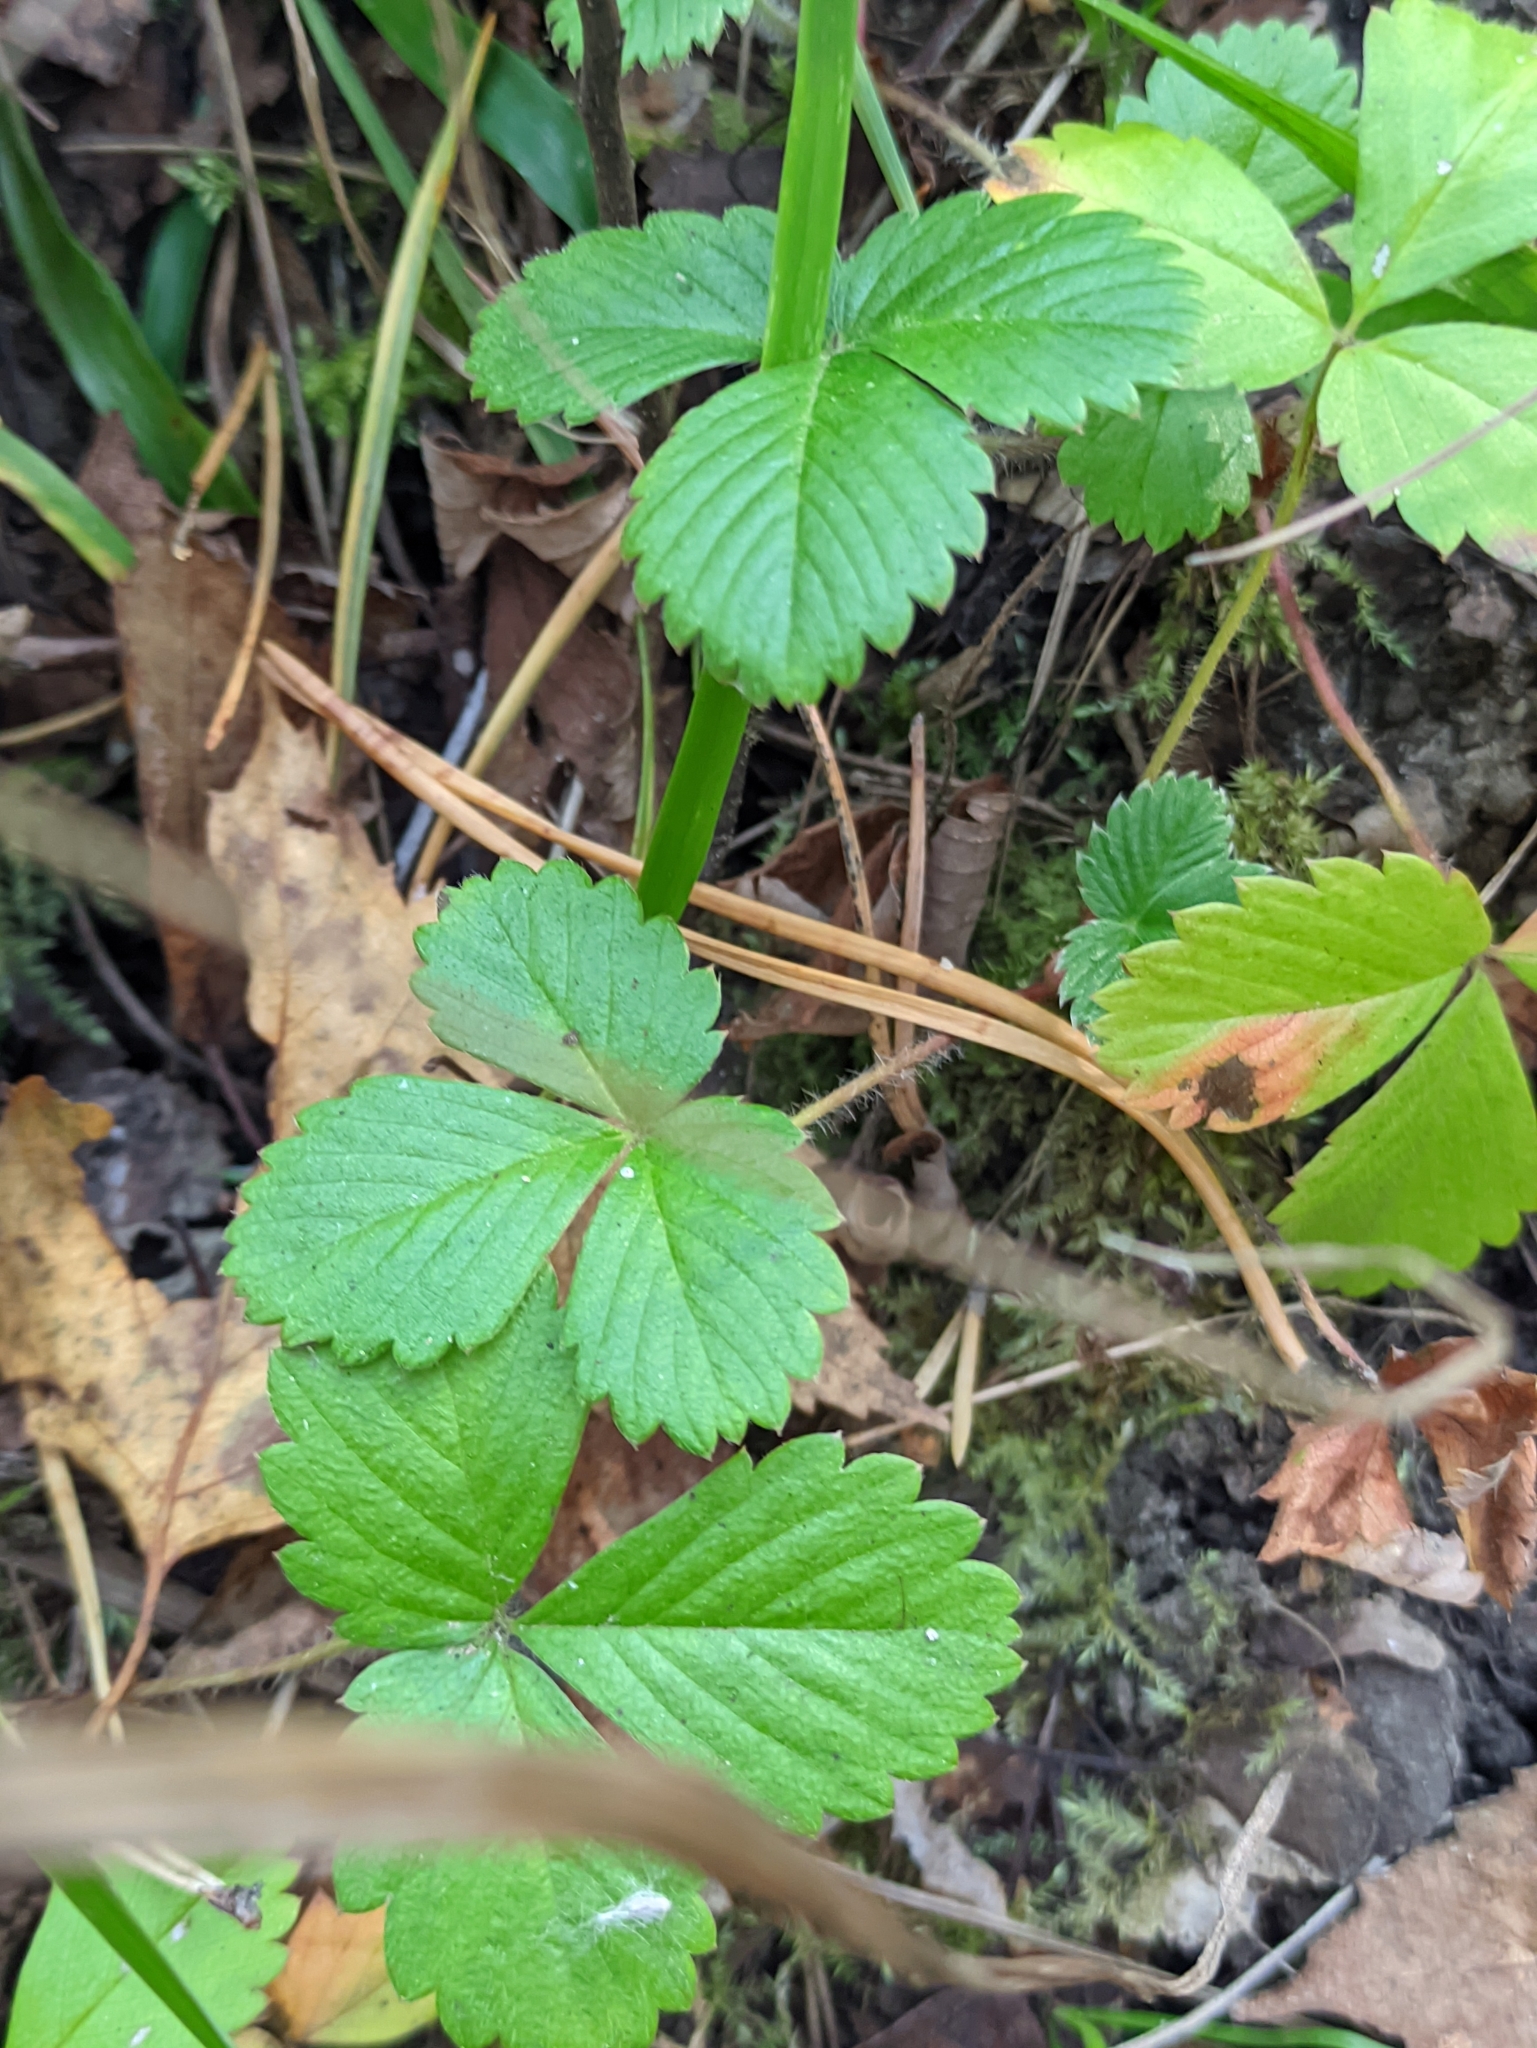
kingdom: Plantae
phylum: Tracheophyta
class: Magnoliopsida
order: Rosales
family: Rosaceae
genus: Fragaria
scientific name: Fragaria vesca
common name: Wild strawberry
